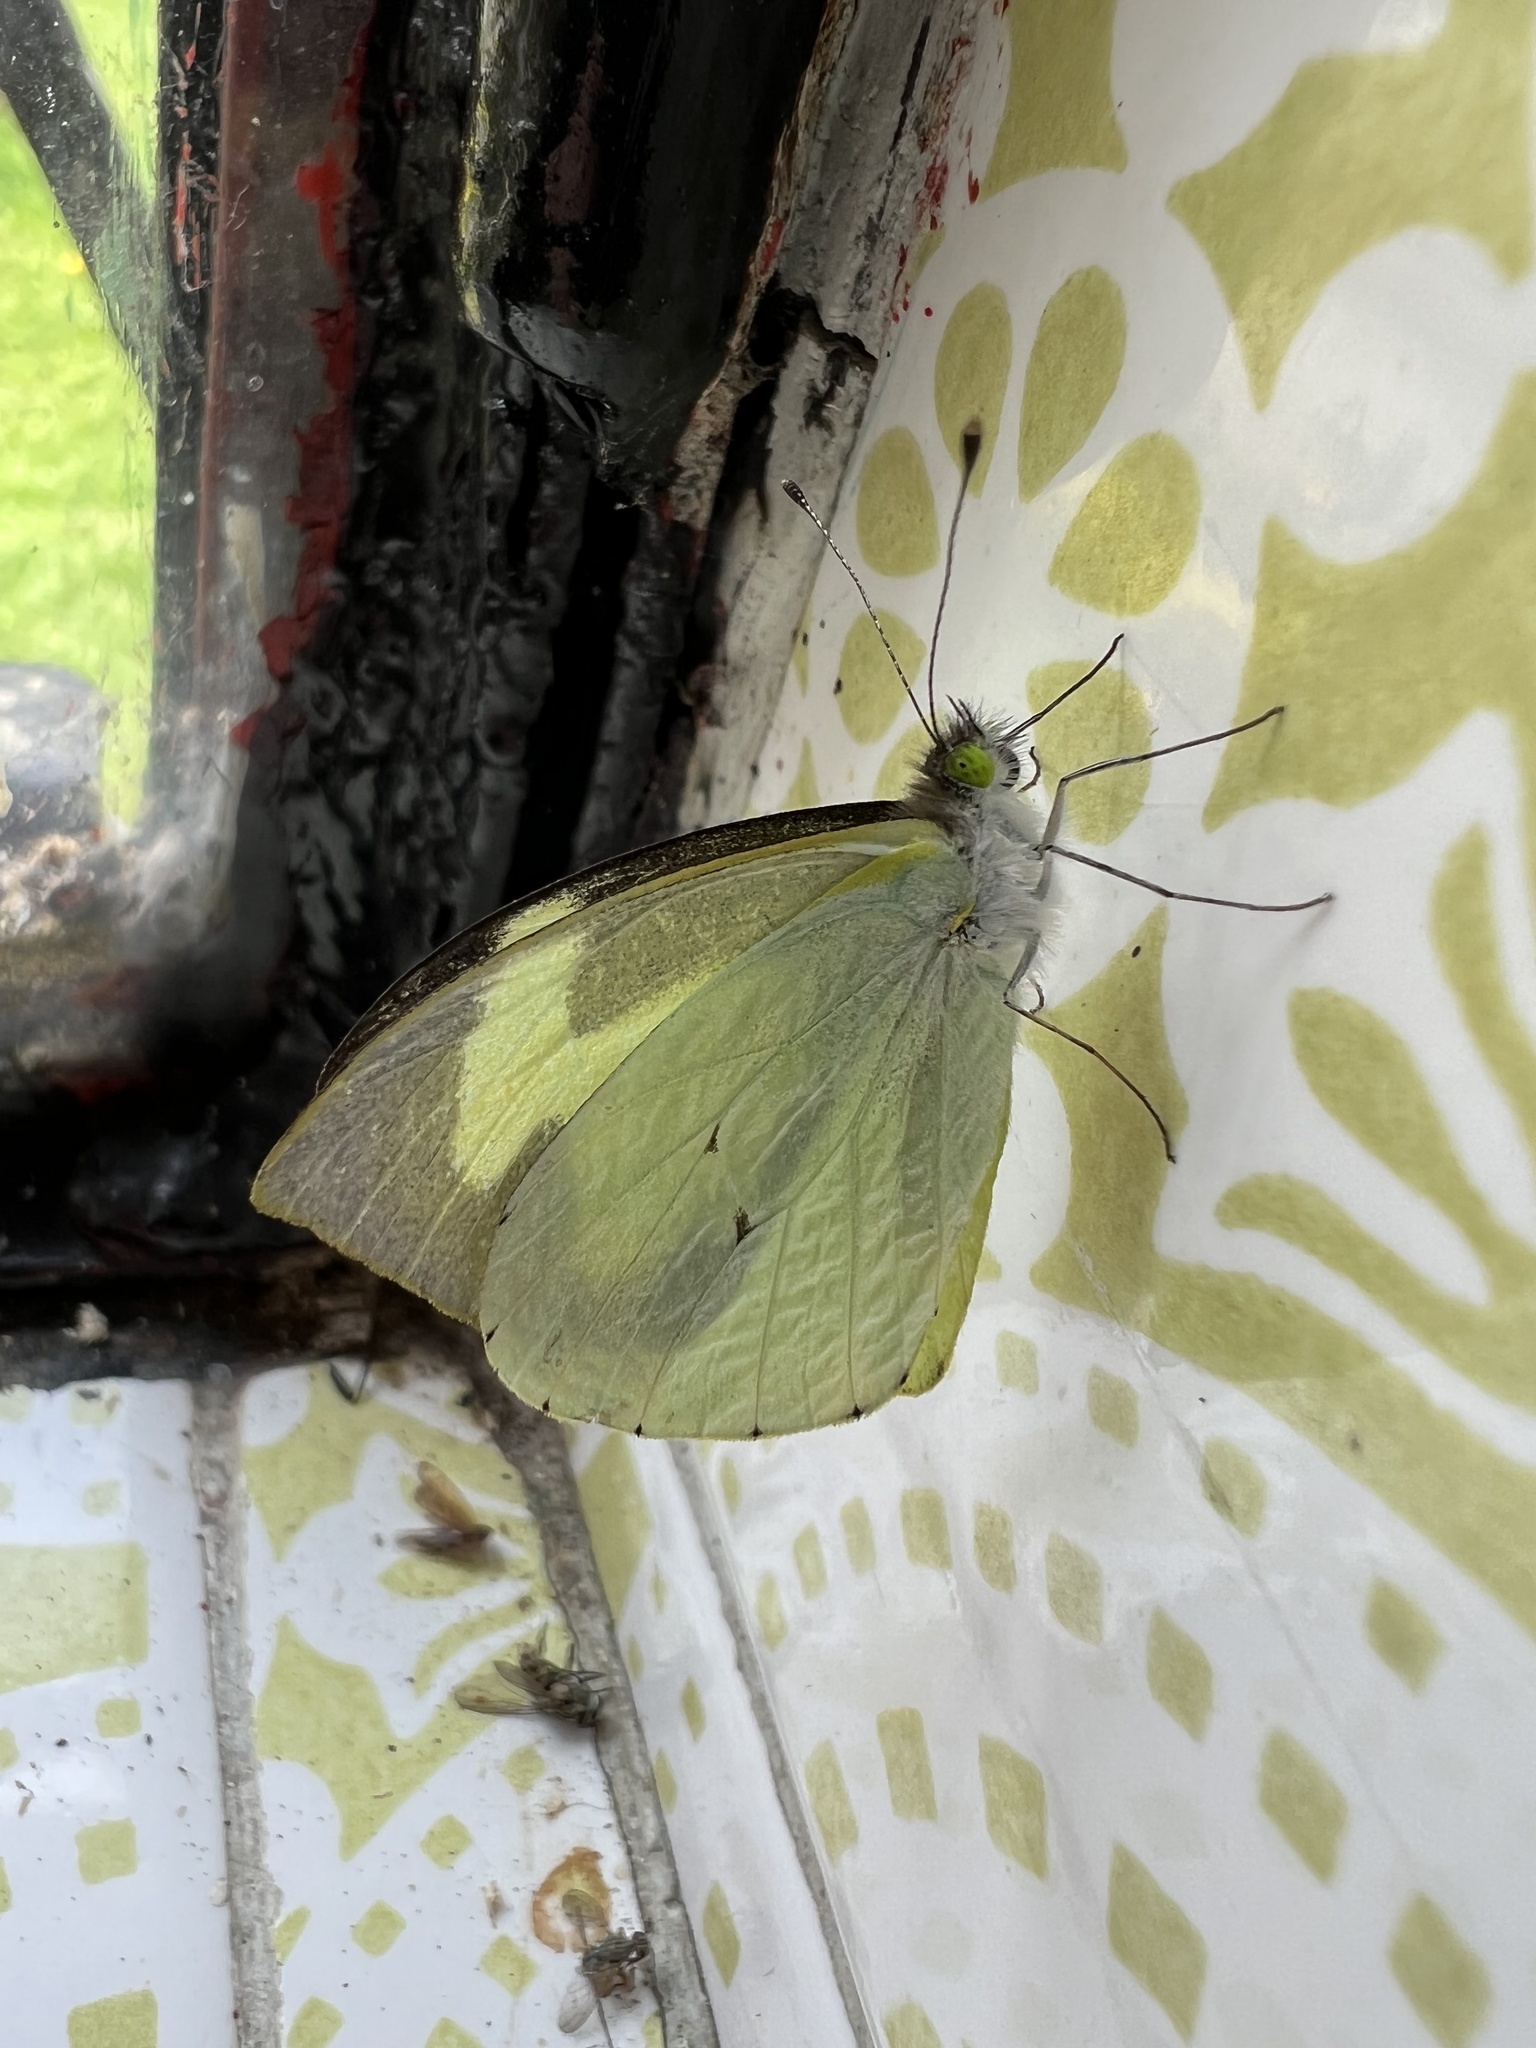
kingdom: Animalia
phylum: Arthropoda
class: Insecta
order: Lepidoptera
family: Pieridae
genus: Leptophobia
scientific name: Leptophobia eleone
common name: Silky wanderer
